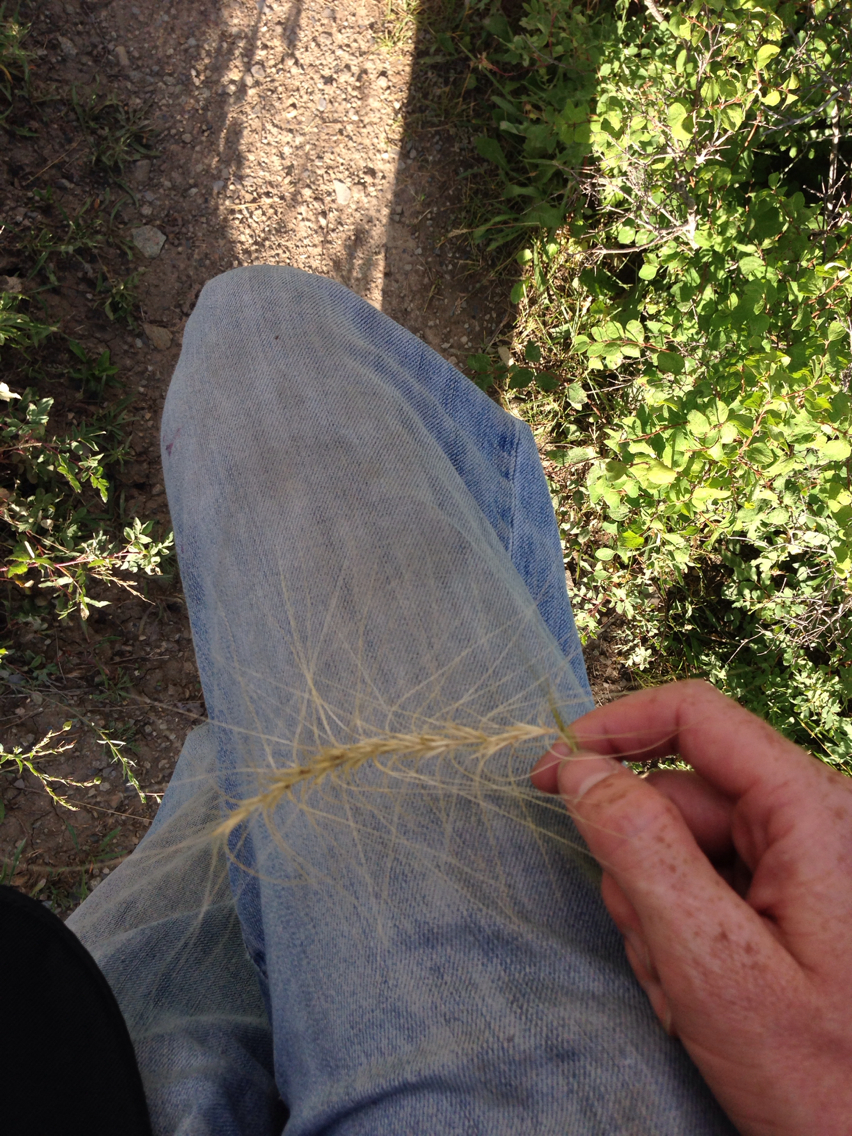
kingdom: Plantae
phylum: Tracheophyta
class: Liliopsida
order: Poales
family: Poaceae
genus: Elymus
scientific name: Elymus elymoides
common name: Bottlebrush squirreltail
